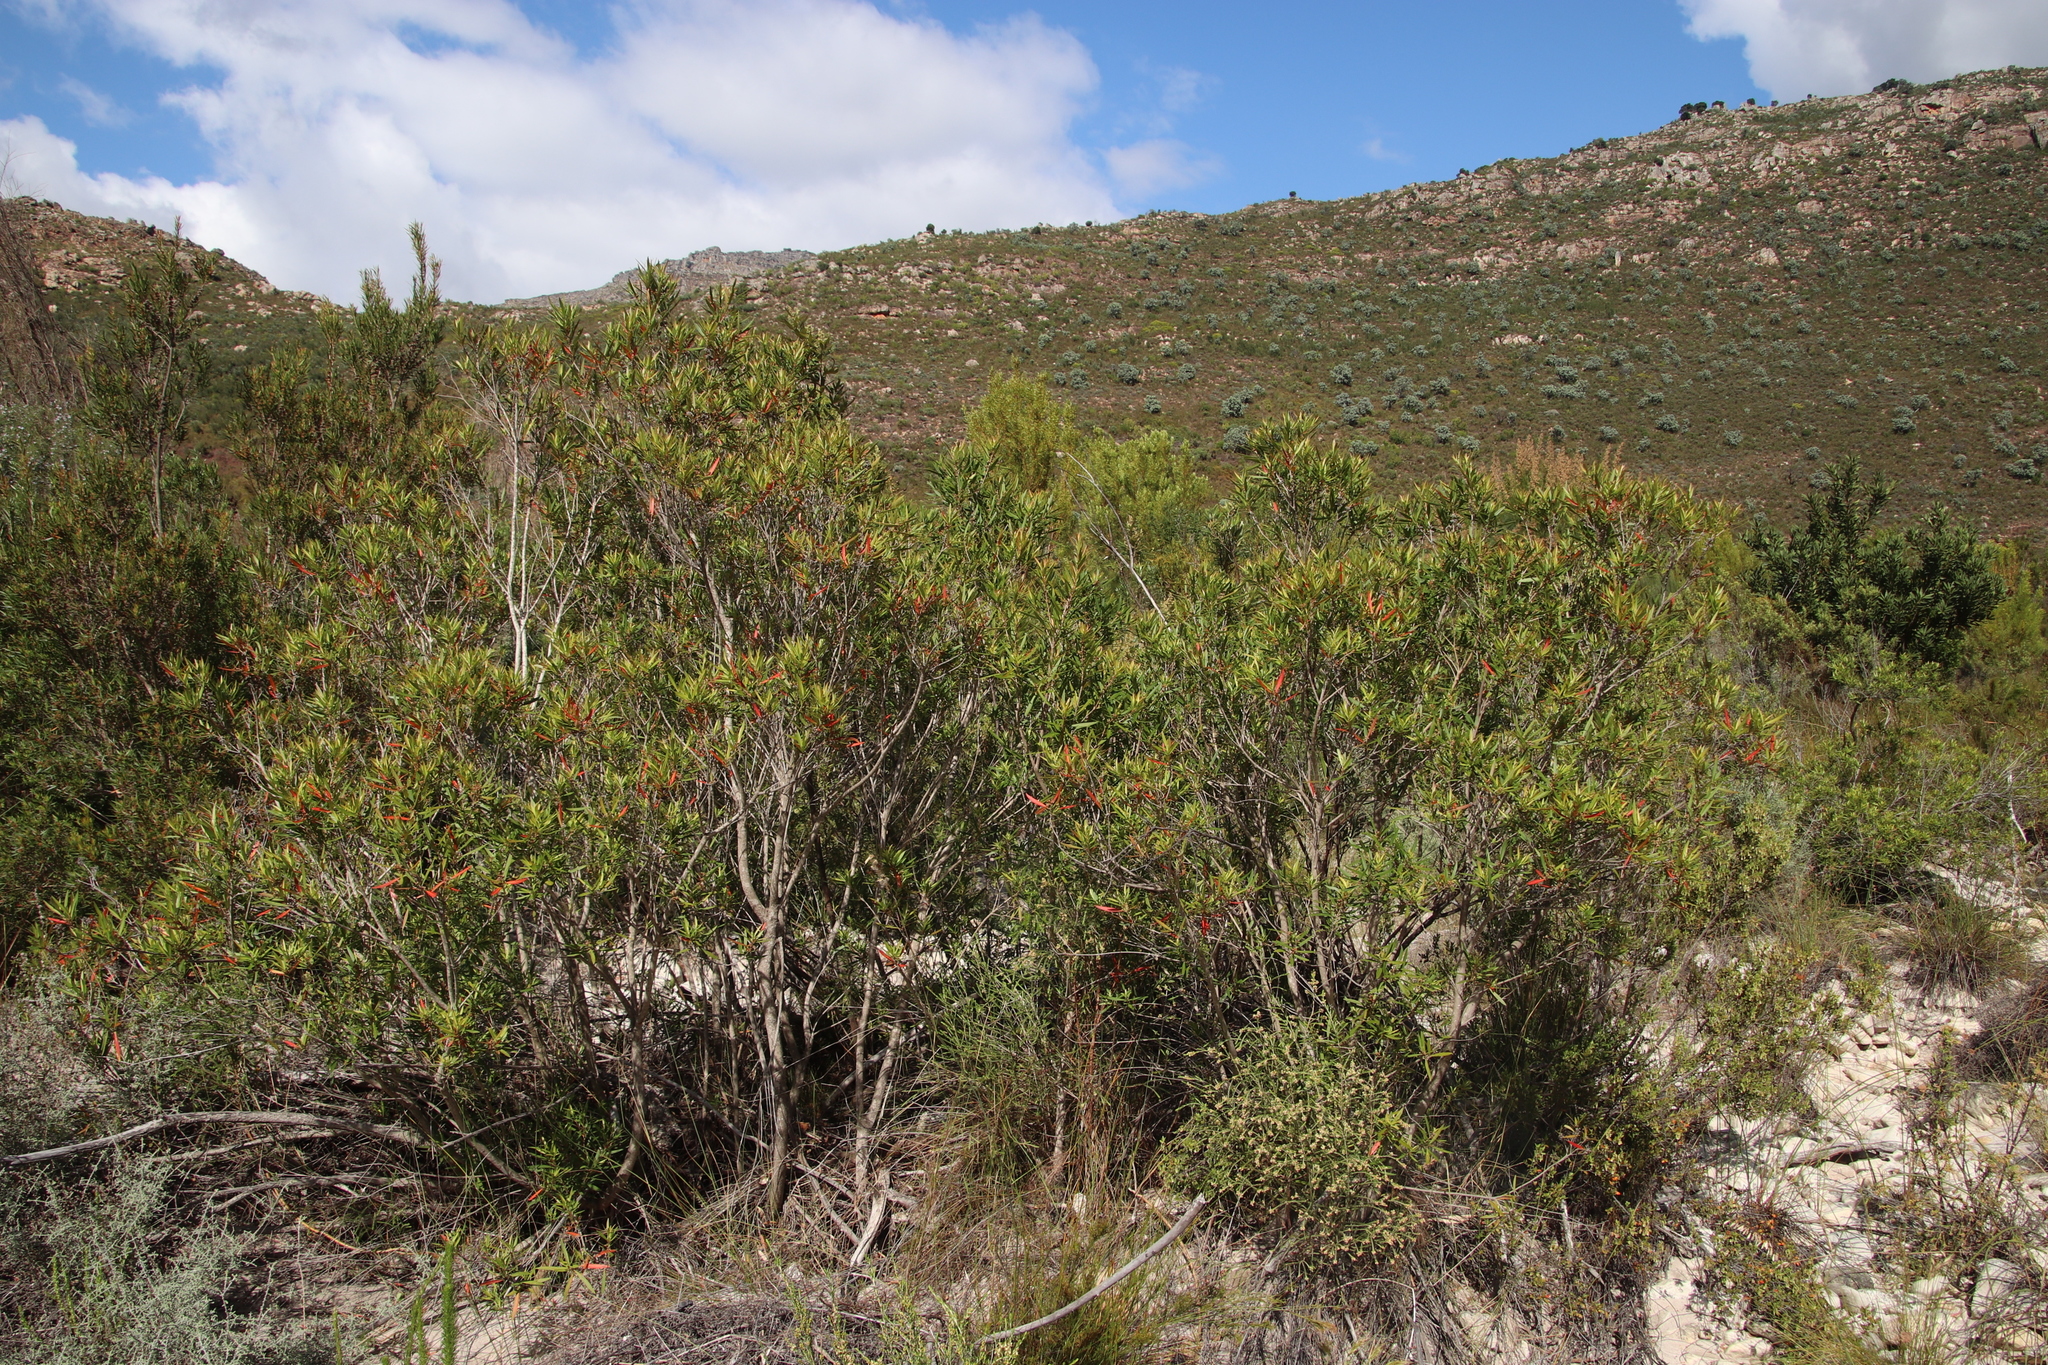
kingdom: Plantae
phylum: Tracheophyta
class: Magnoliopsida
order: Myrtales
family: Myrtaceae
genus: Callistemon
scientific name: Callistemon lanceolatus
